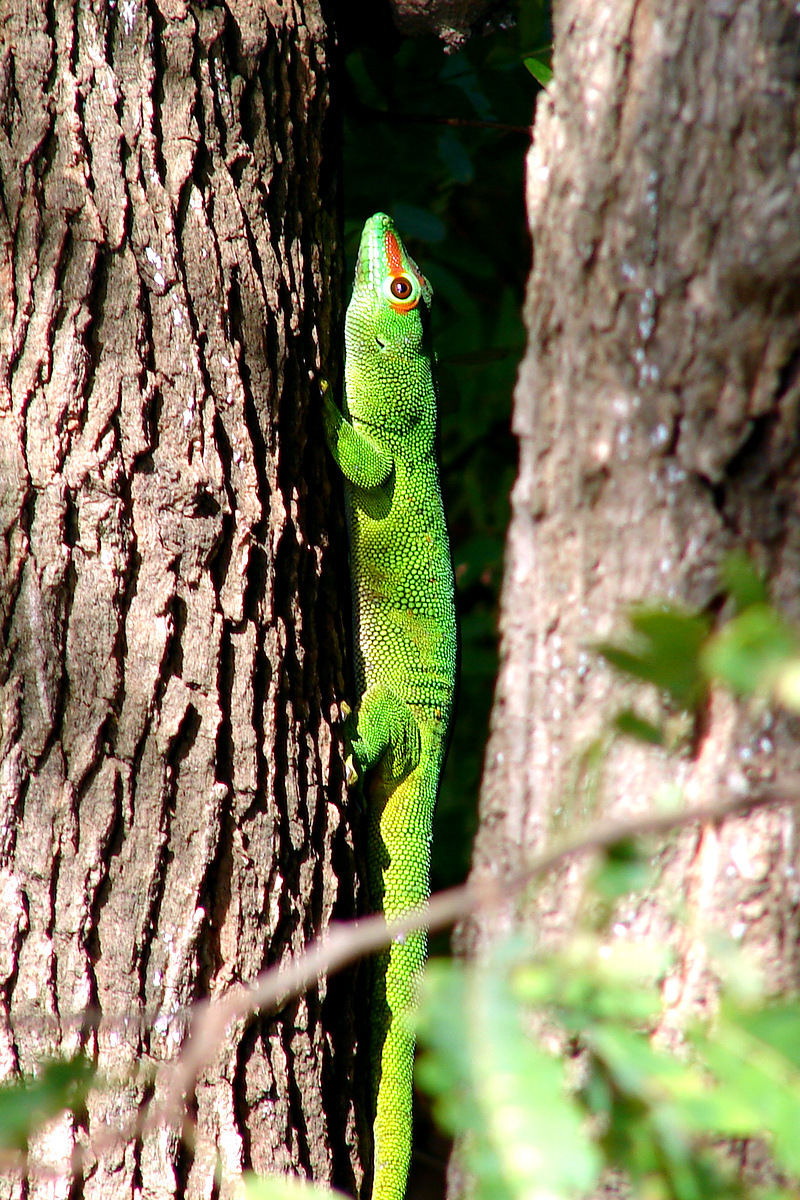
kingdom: Animalia
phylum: Chordata
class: Squamata
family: Gekkonidae
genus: Phelsuma
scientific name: Phelsuma grandis
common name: Madagascar giant day gecko
